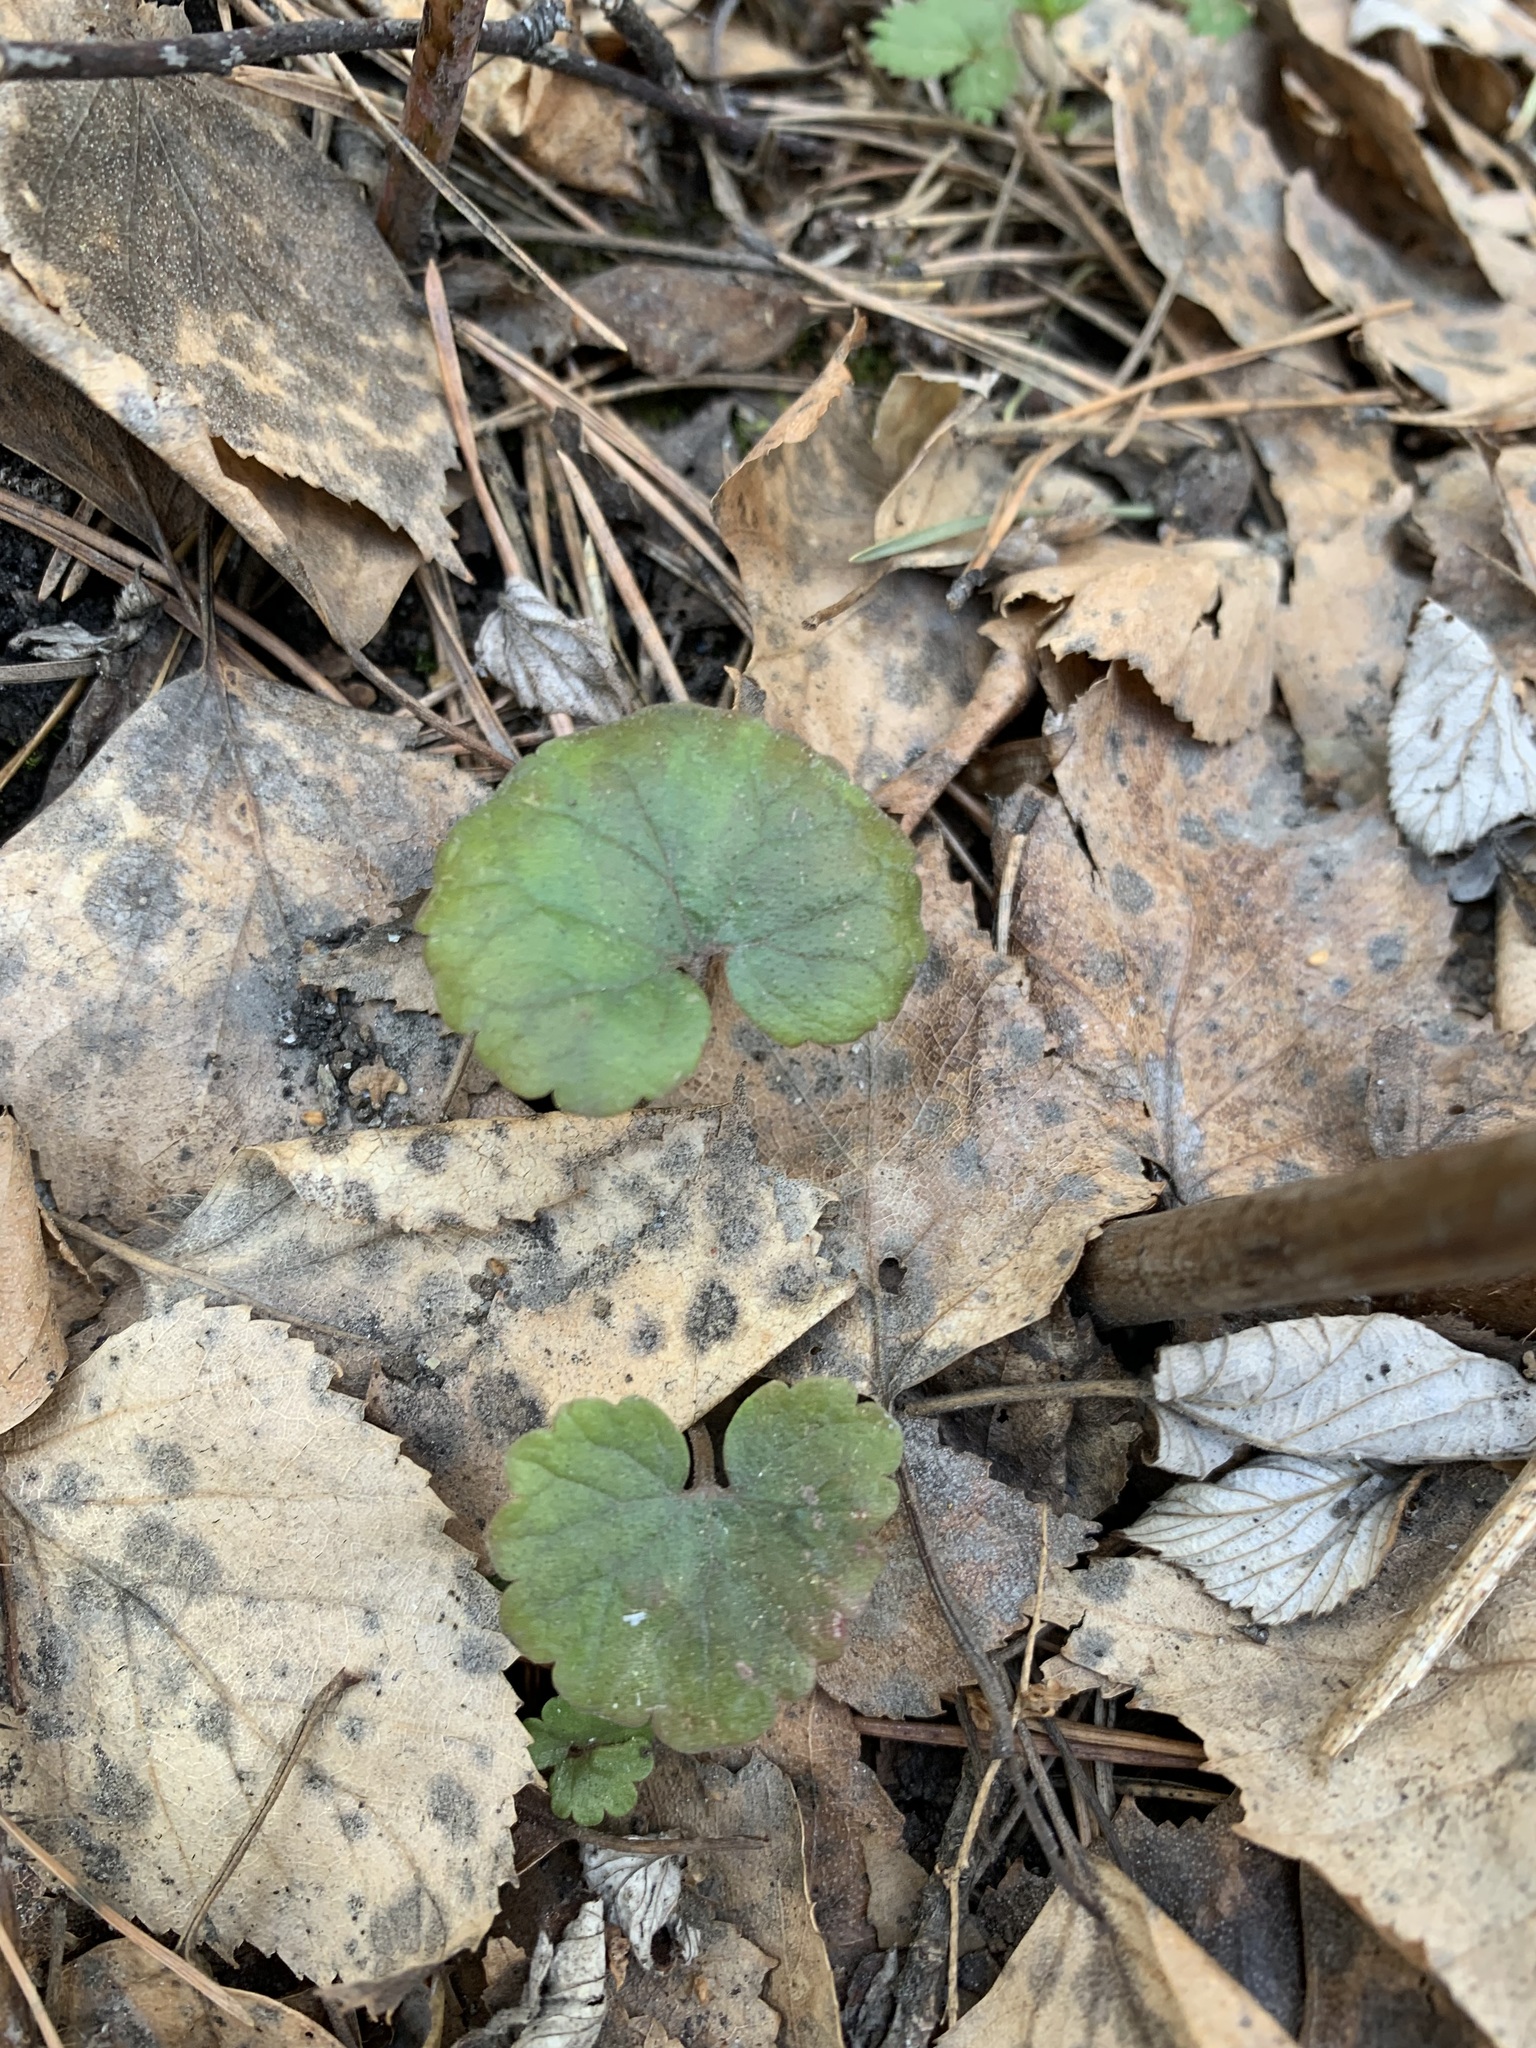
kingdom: Plantae
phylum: Tracheophyta
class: Magnoliopsida
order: Lamiales
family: Lamiaceae
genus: Glechoma
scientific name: Glechoma hederacea
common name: Ground ivy
